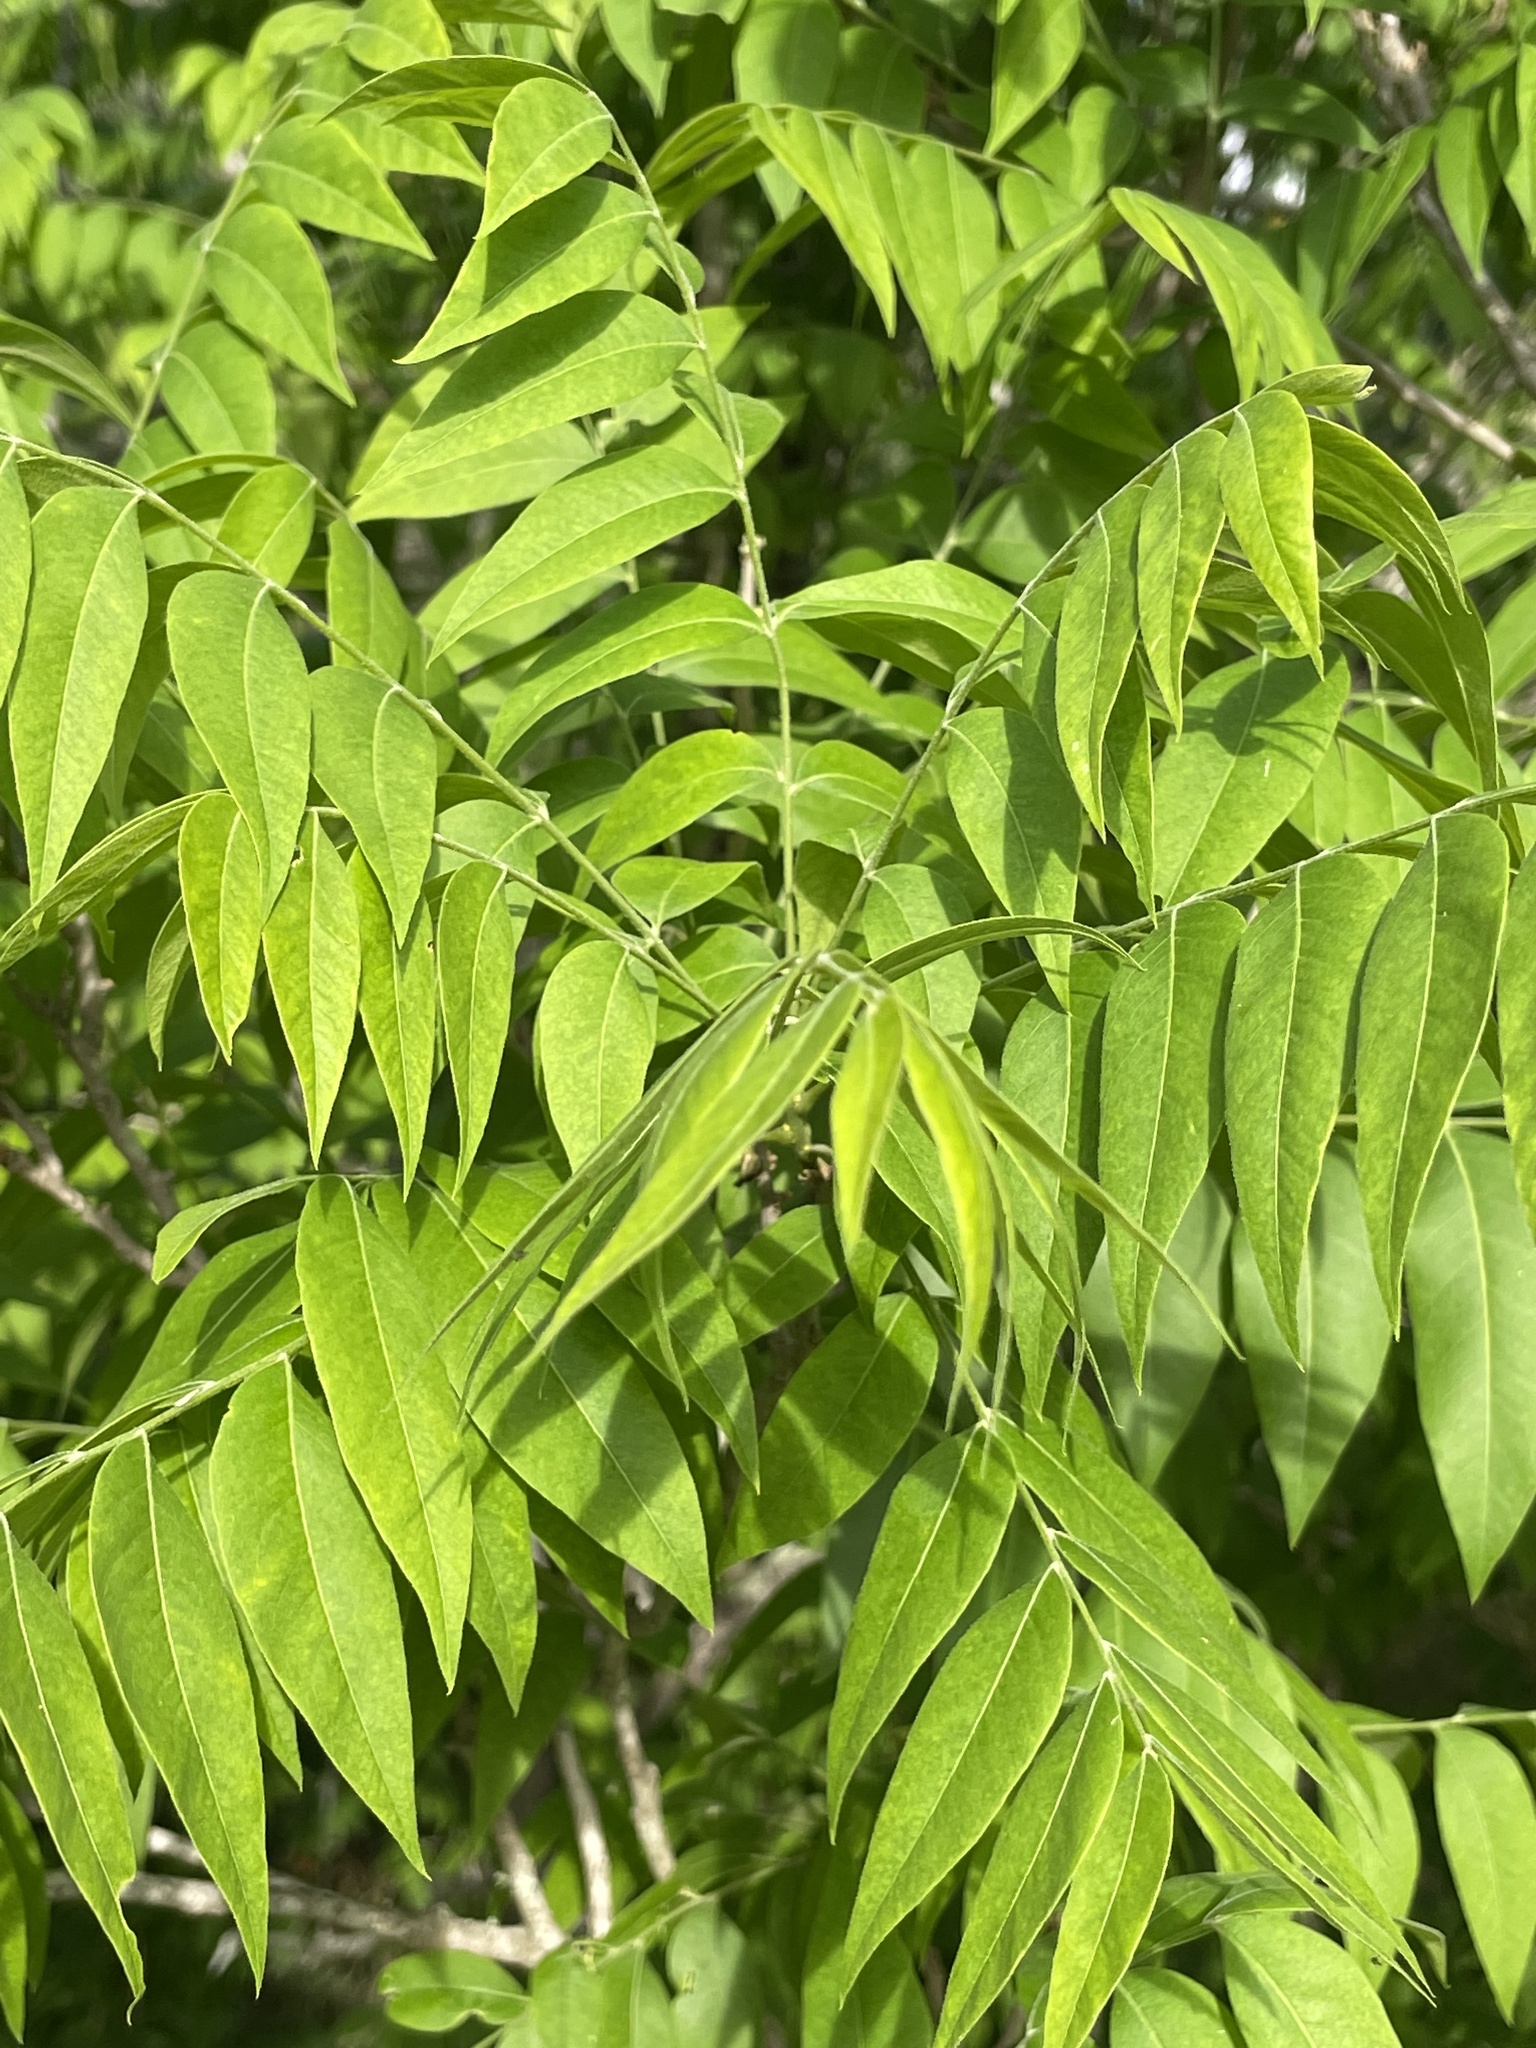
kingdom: Plantae
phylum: Tracheophyta
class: Magnoliopsida
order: Sapindales
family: Sapindaceae
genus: Sapindus
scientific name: Sapindus drummondii
